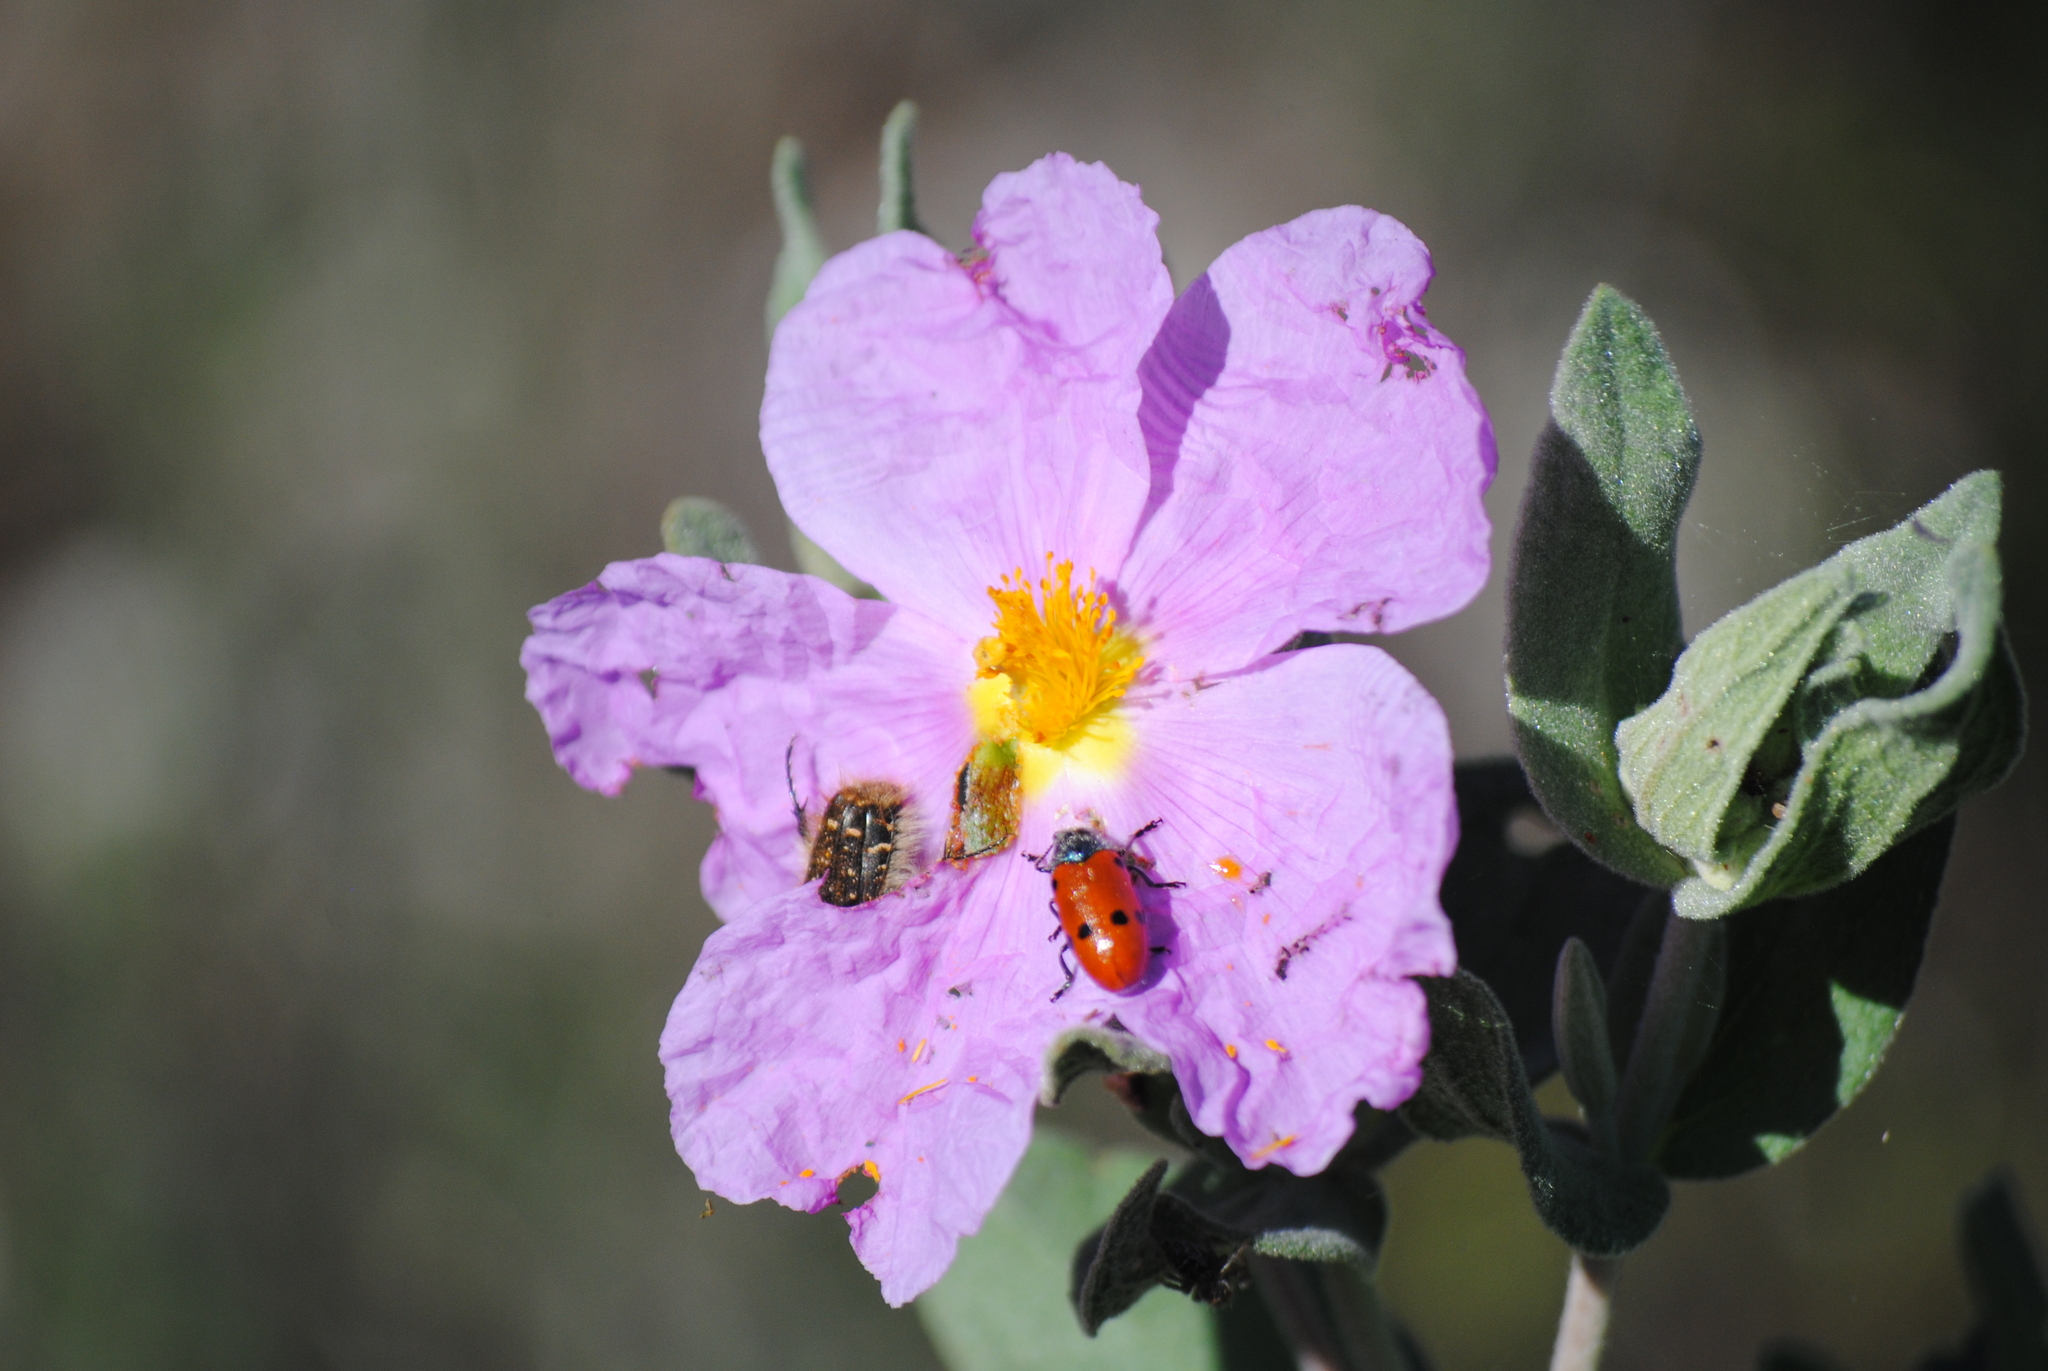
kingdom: Plantae
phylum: Tracheophyta
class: Magnoliopsida
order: Malvales
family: Cistaceae
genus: Cistus
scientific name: Cistus albidus
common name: White-leaf rock-rose
